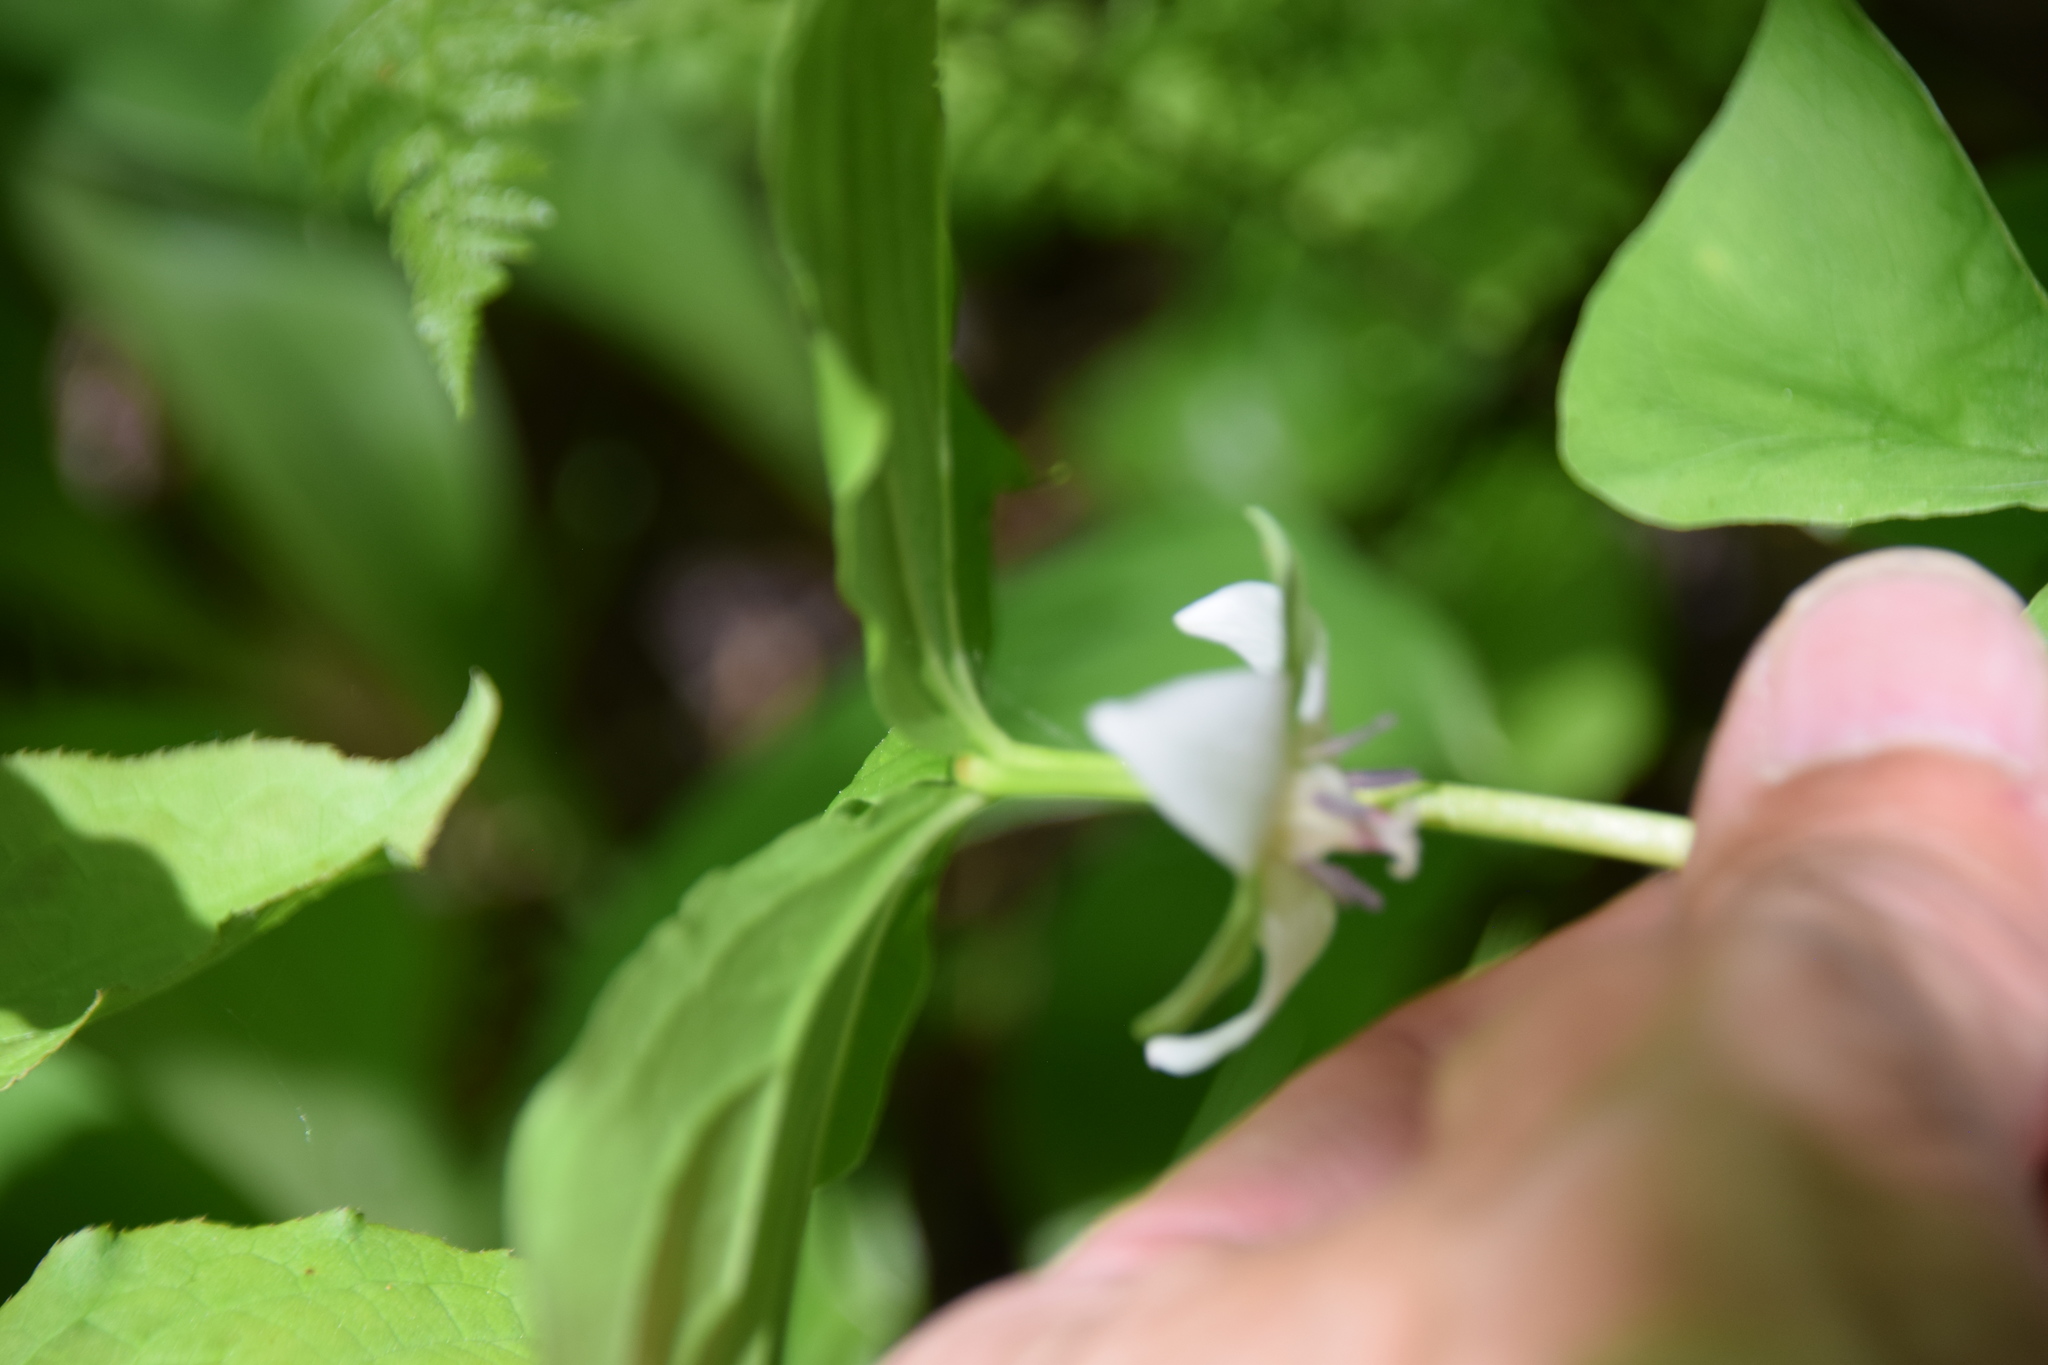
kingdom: Plantae
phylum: Tracheophyta
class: Liliopsida
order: Liliales
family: Melanthiaceae
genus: Trillium
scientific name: Trillium cernuum
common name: Nodding trillium
